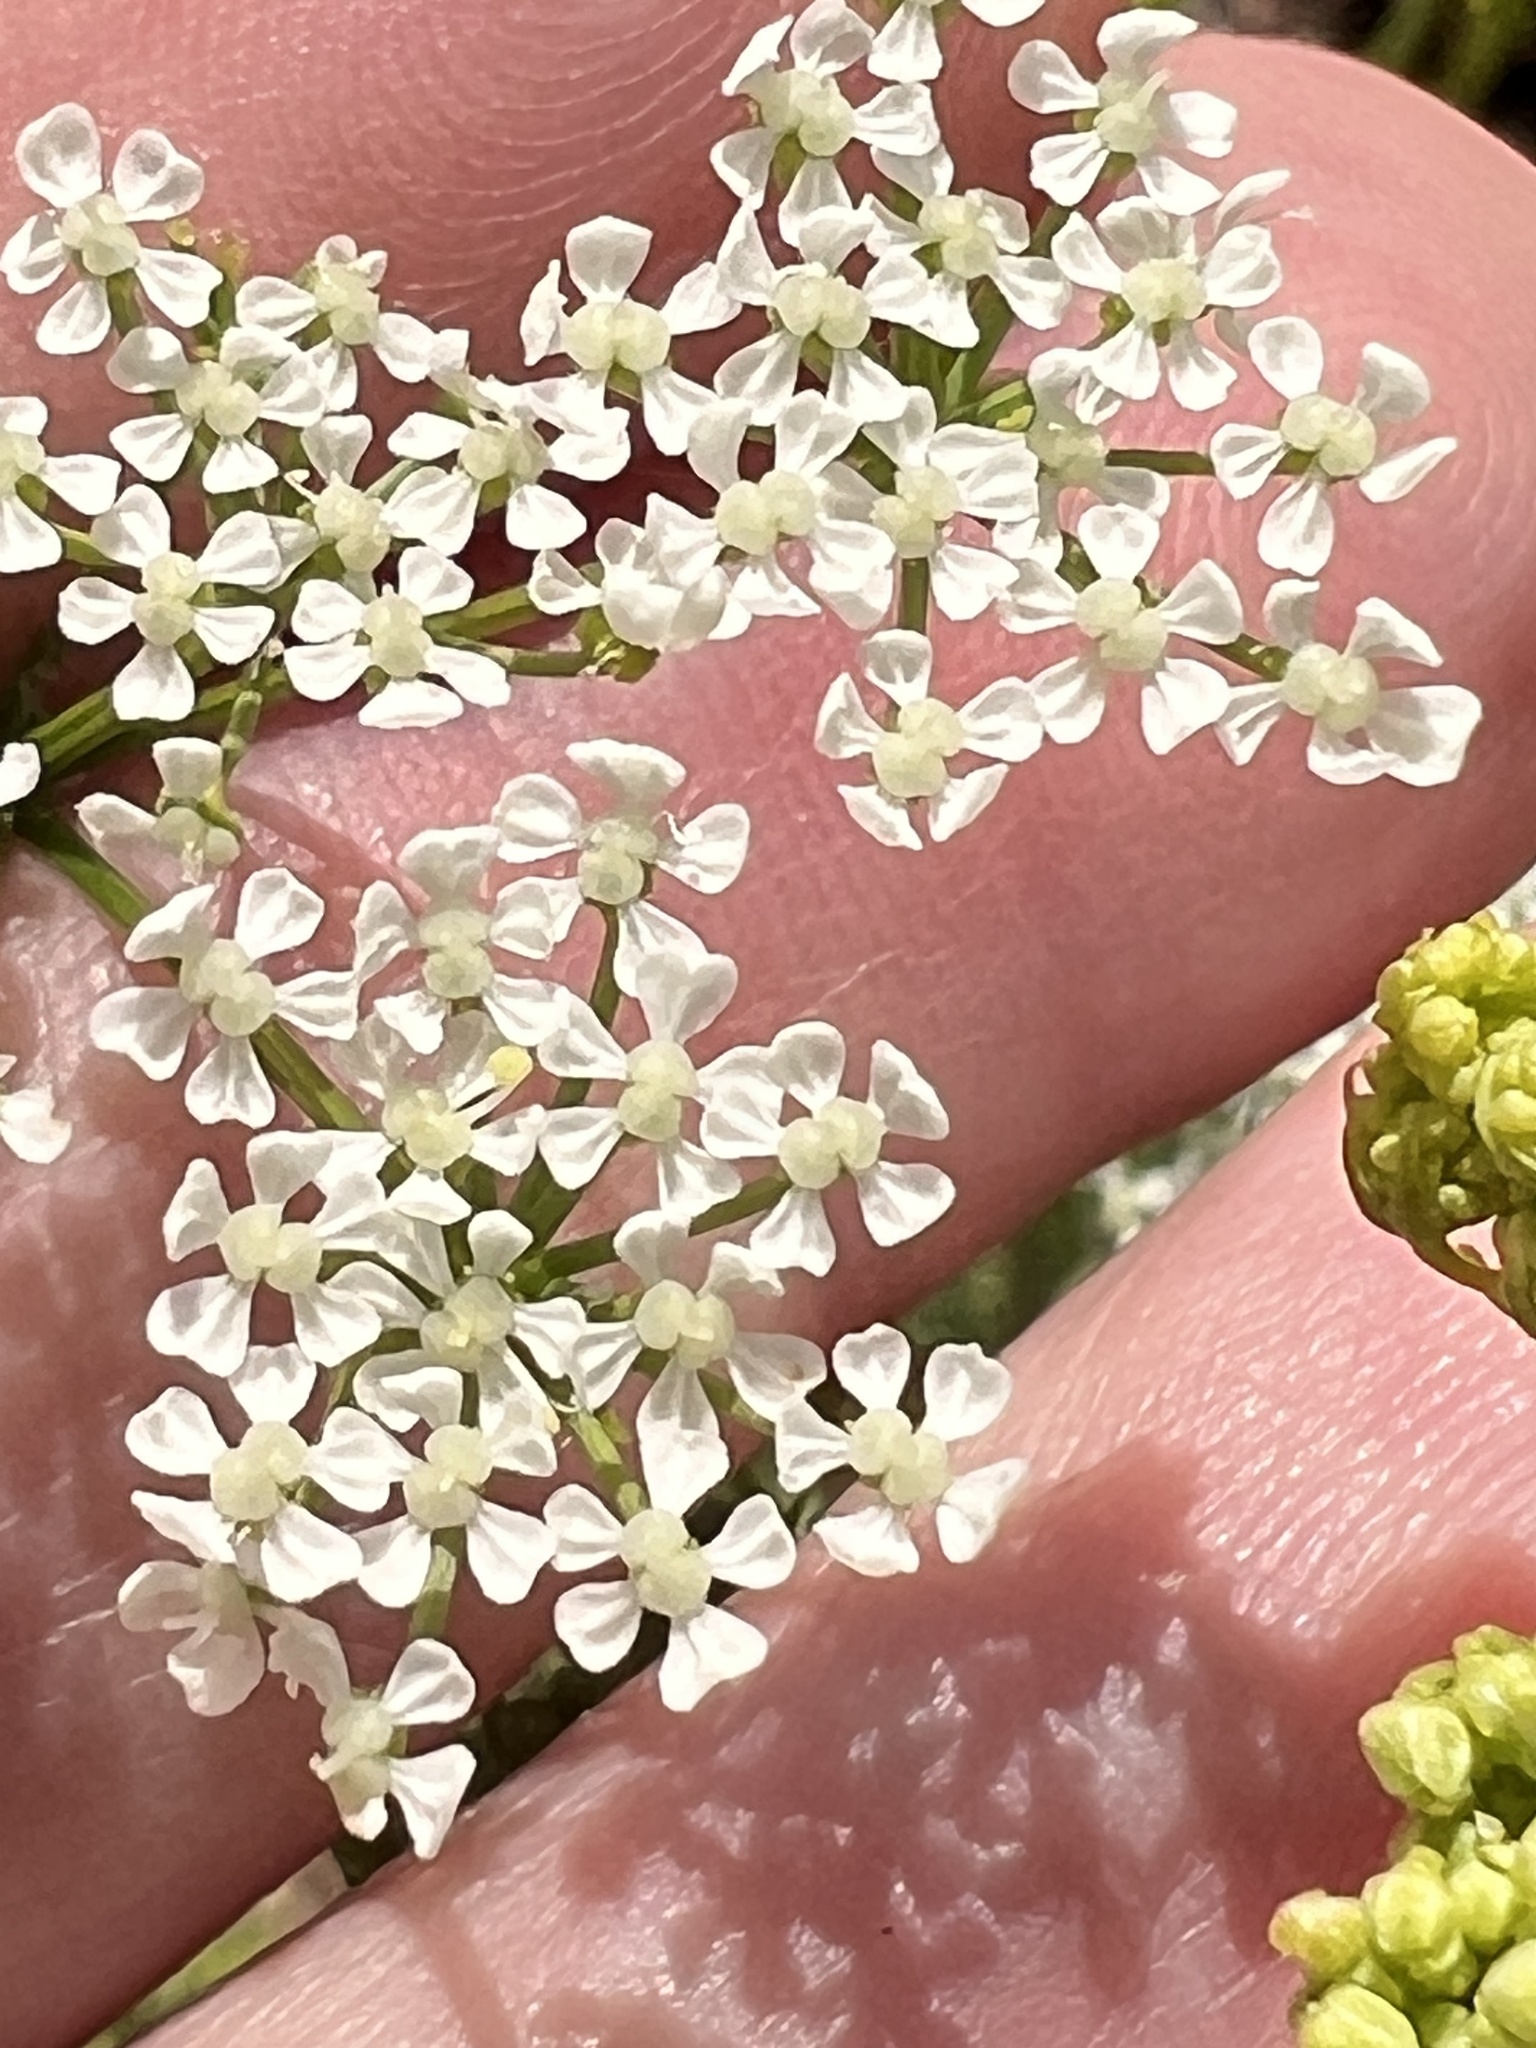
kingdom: Plantae
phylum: Tracheophyta
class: Magnoliopsida
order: Apiales
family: Apiaceae
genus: Conium
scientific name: Conium maculatum
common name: Hemlock
